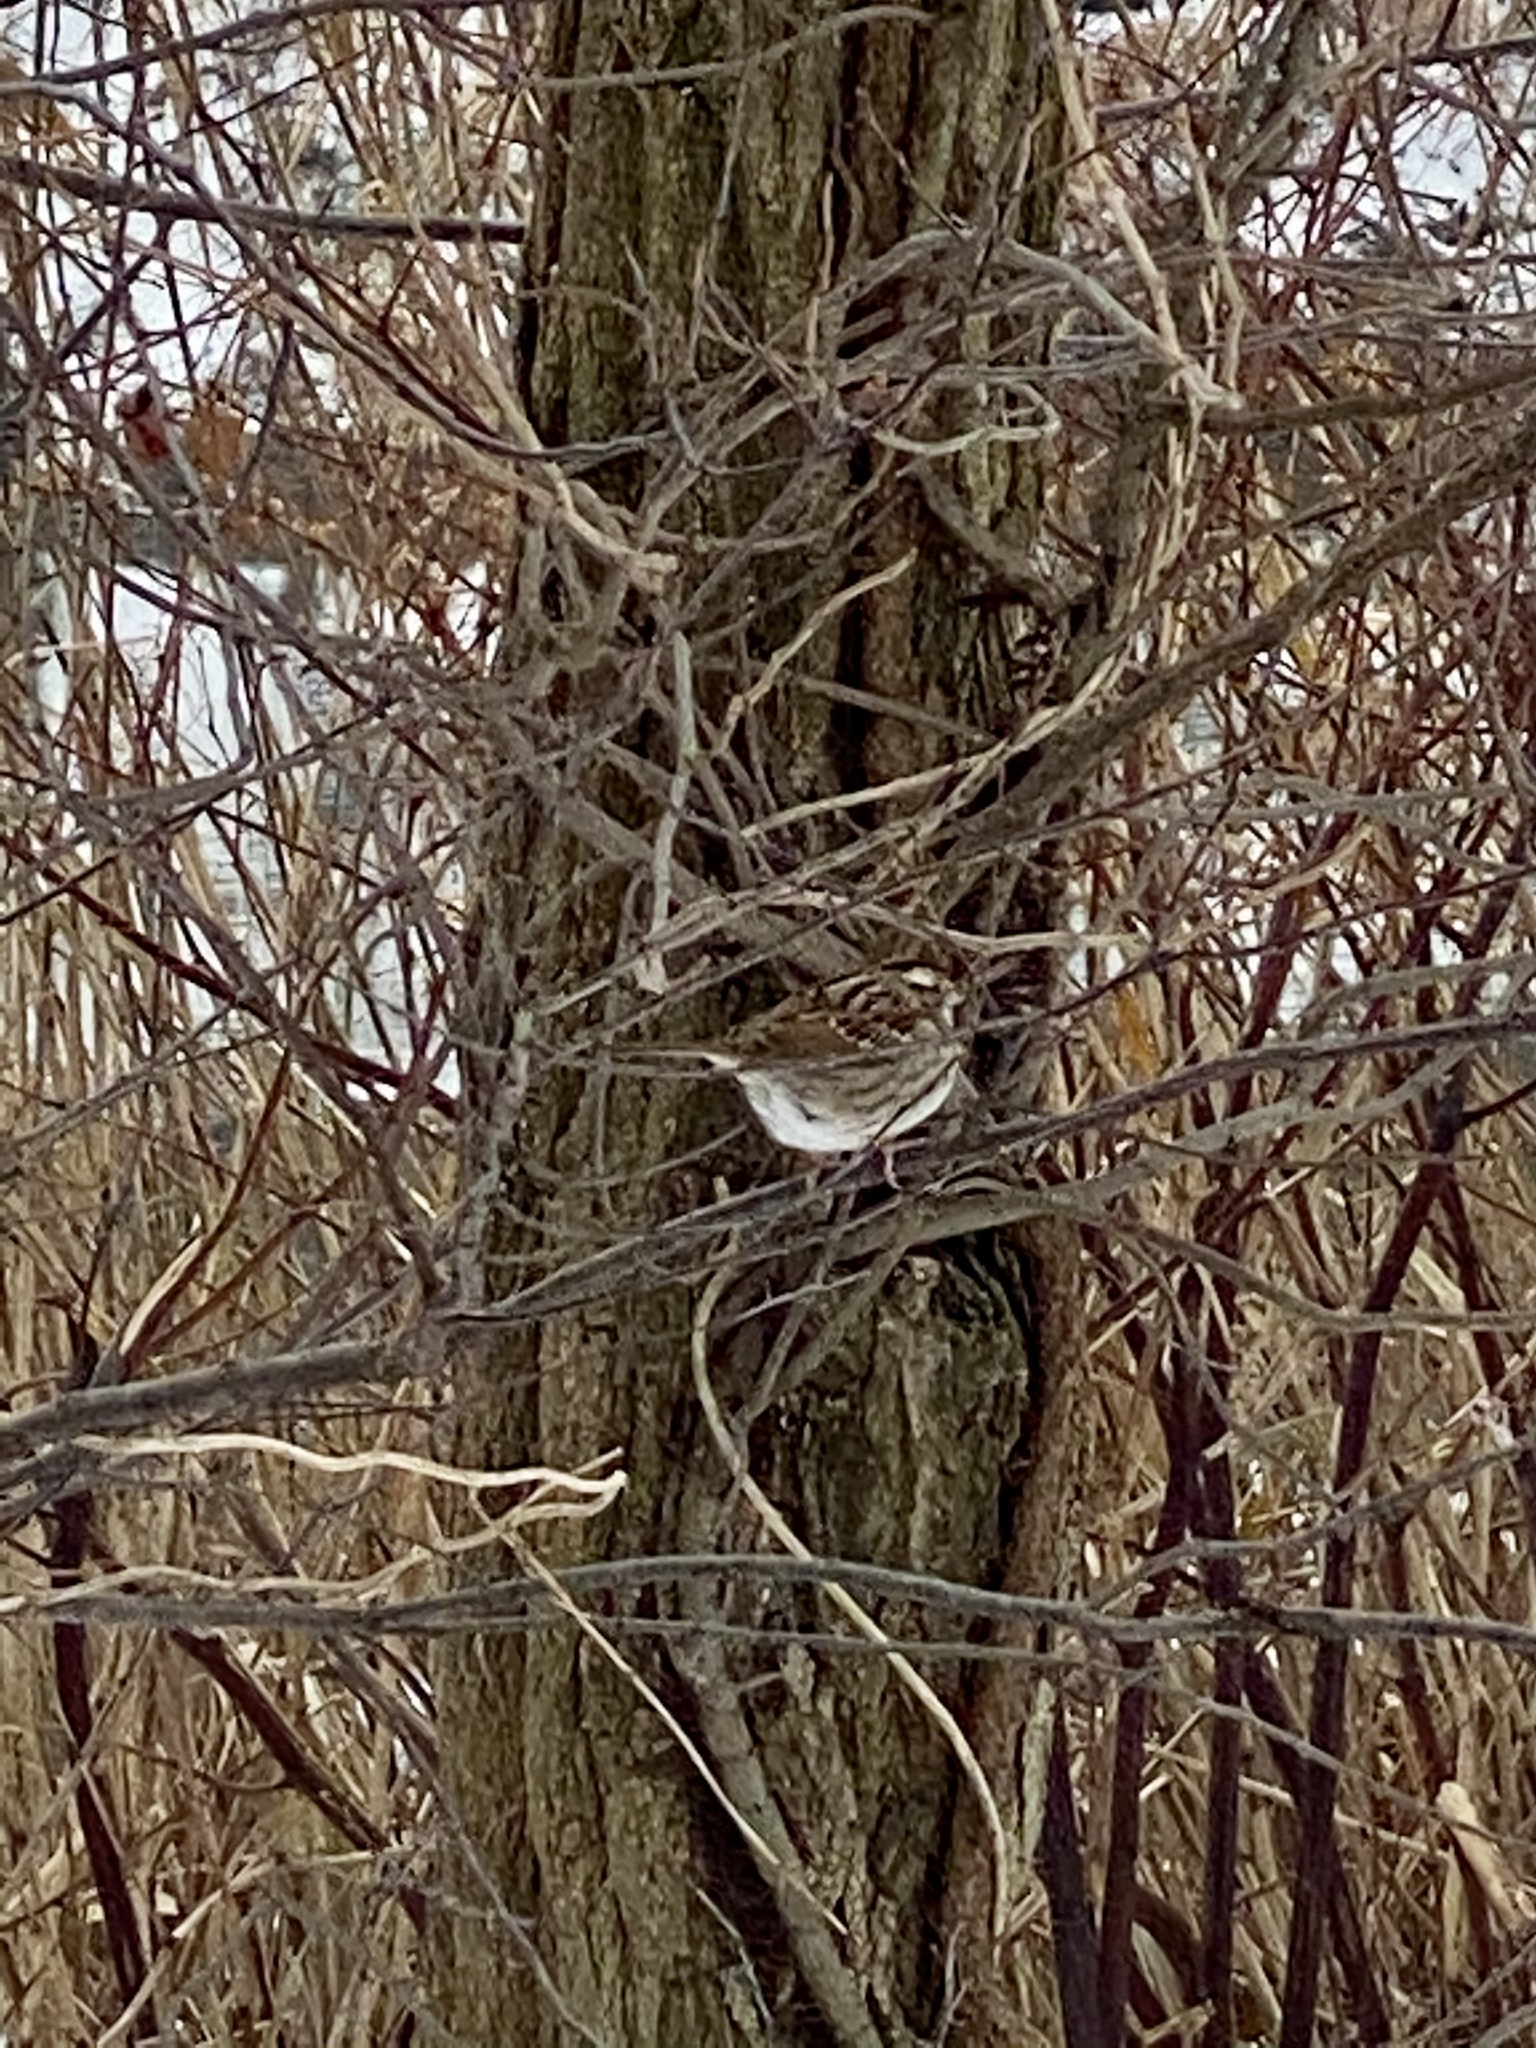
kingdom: Animalia
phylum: Chordata
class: Aves
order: Passeriformes
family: Passerellidae
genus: Zonotrichia
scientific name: Zonotrichia albicollis
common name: White-throated sparrow
